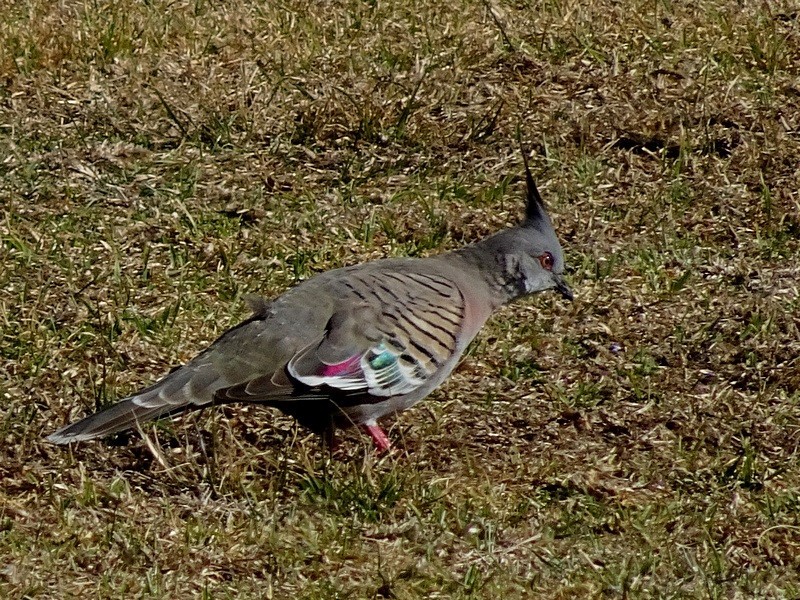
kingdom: Animalia
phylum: Chordata
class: Aves
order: Columbiformes
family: Columbidae
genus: Ocyphaps
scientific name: Ocyphaps lophotes
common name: Crested pigeon
